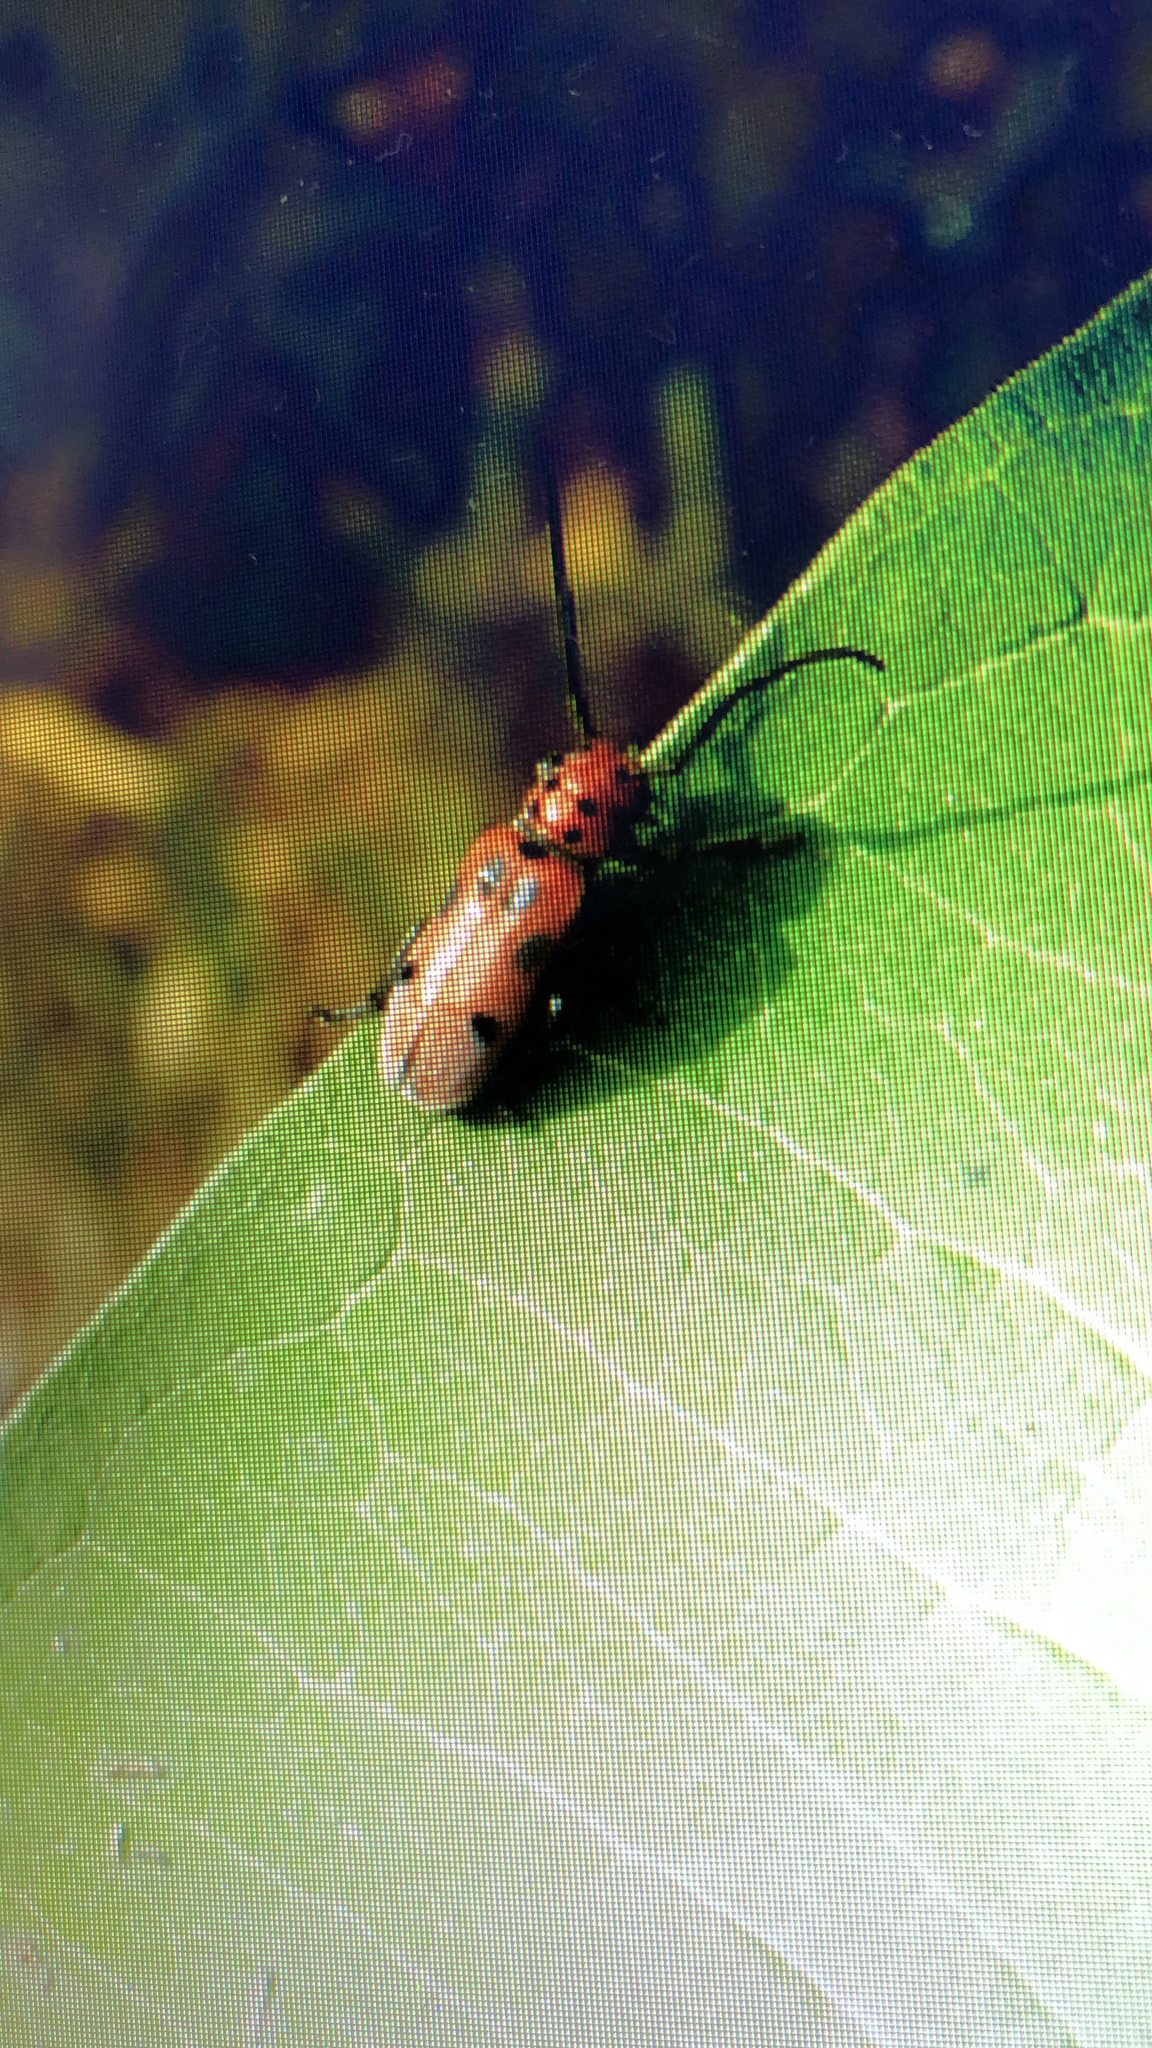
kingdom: Animalia
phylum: Arthropoda
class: Insecta
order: Coleoptera
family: Cerambycidae
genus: Tetraopes
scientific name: Tetraopes tetrophthalmus
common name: Red milkweed beetle
